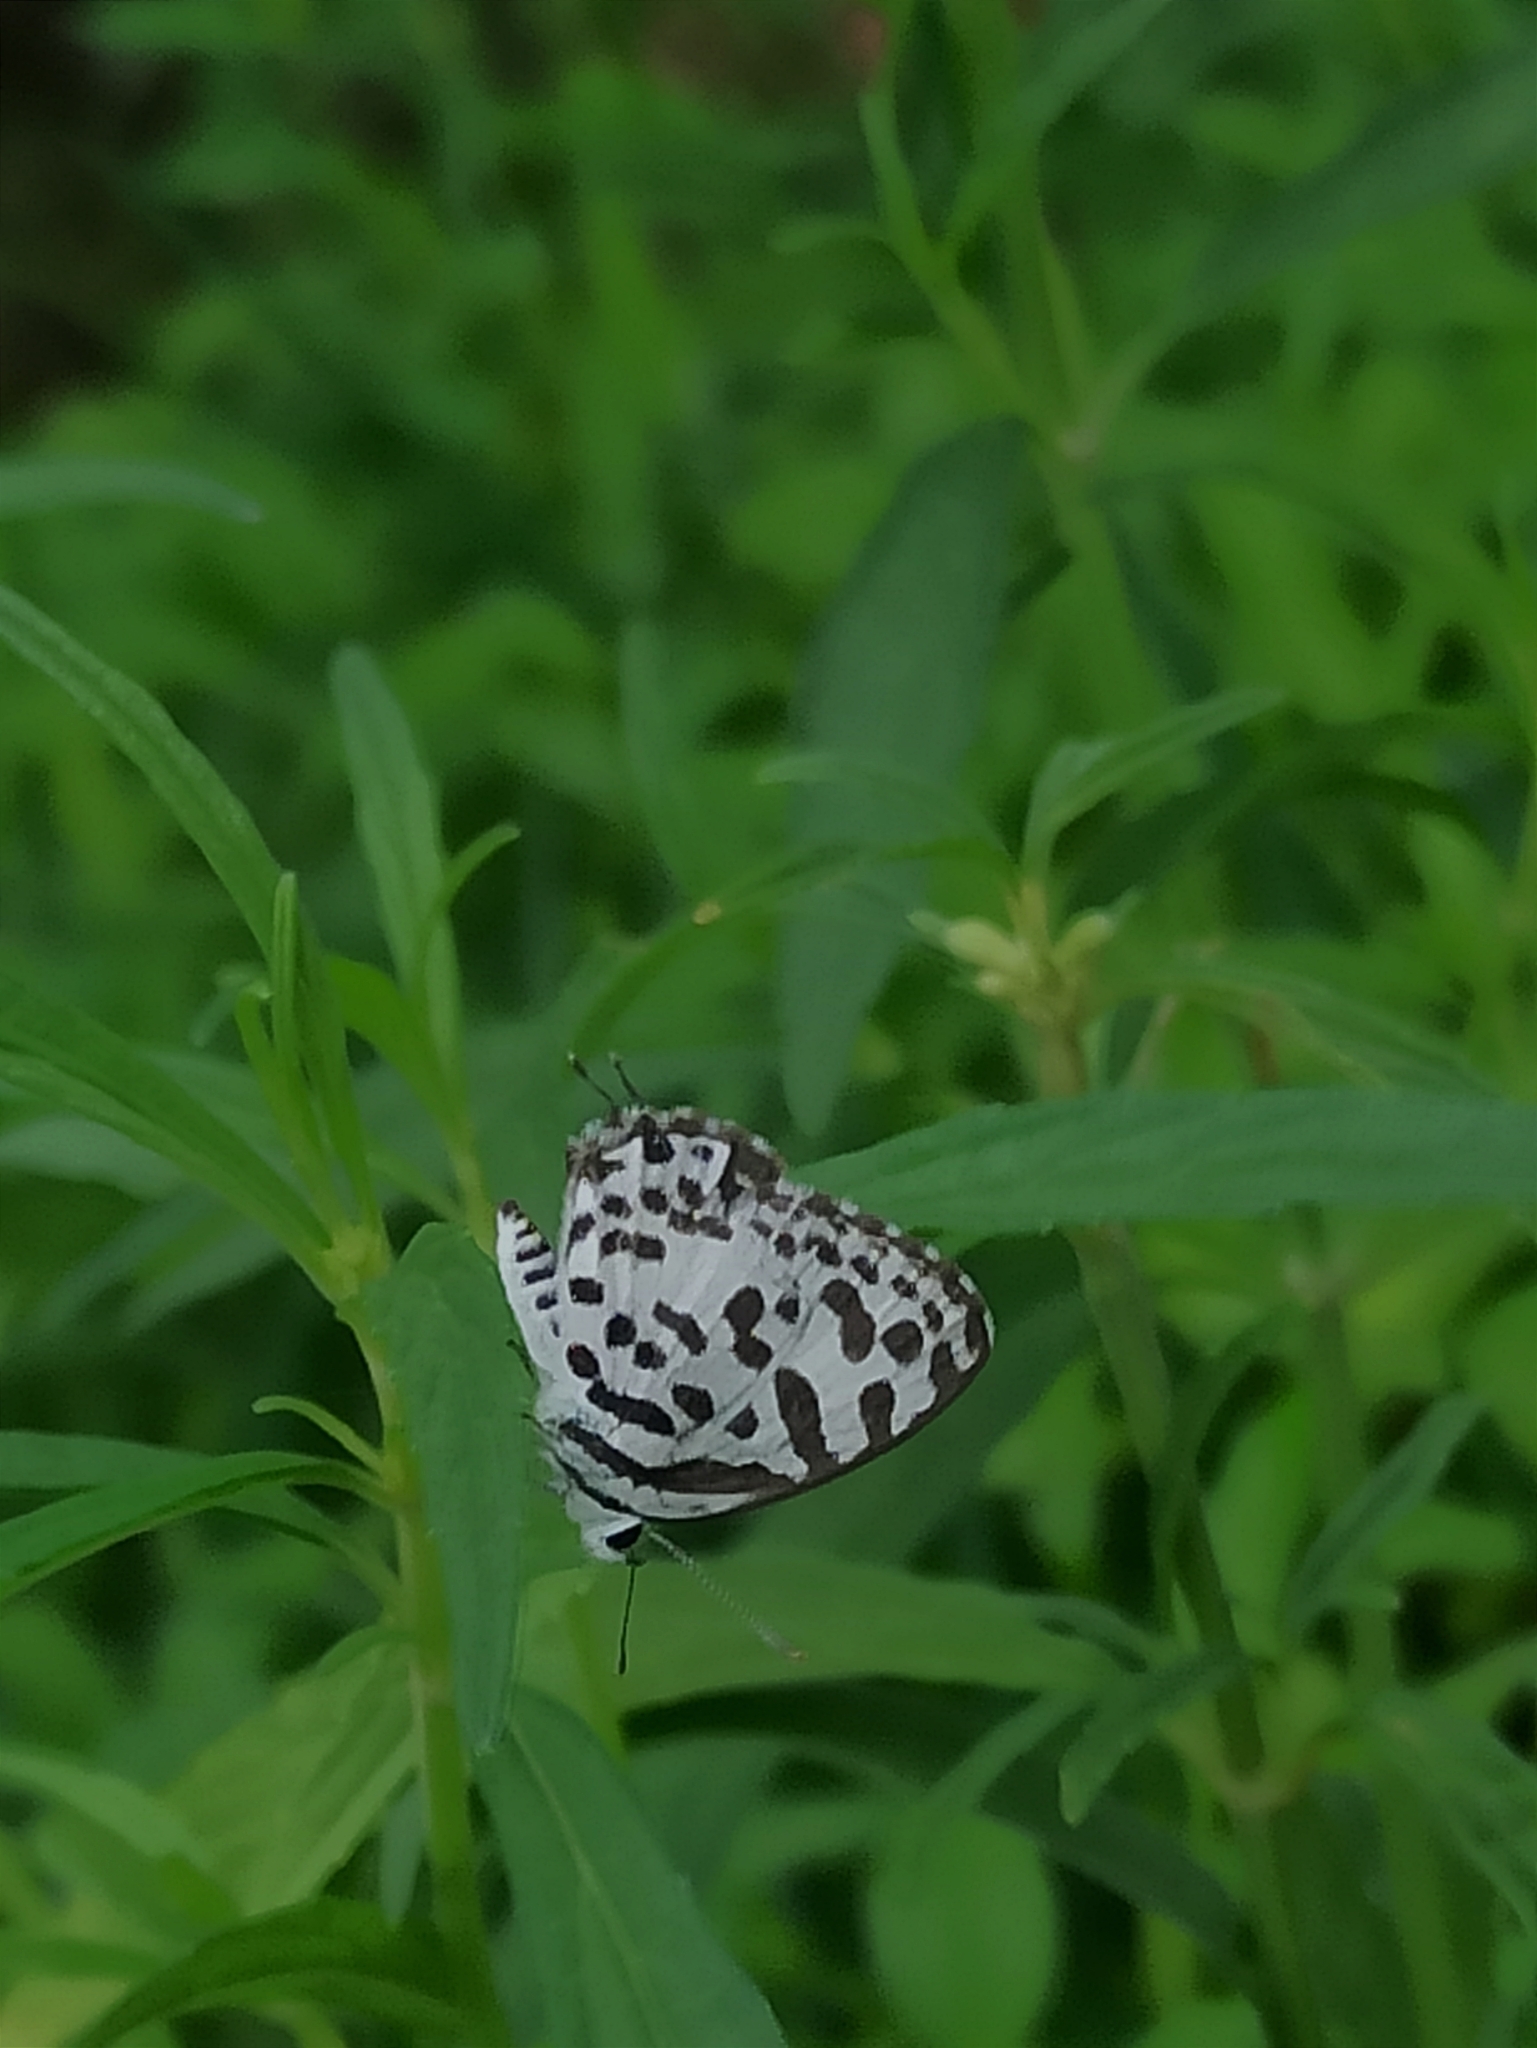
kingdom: Animalia
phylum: Arthropoda
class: Insecta
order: Lepidoptera
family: Lycaenidae
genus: Castalius
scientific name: Castalius rosimon
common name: Common pierrot
